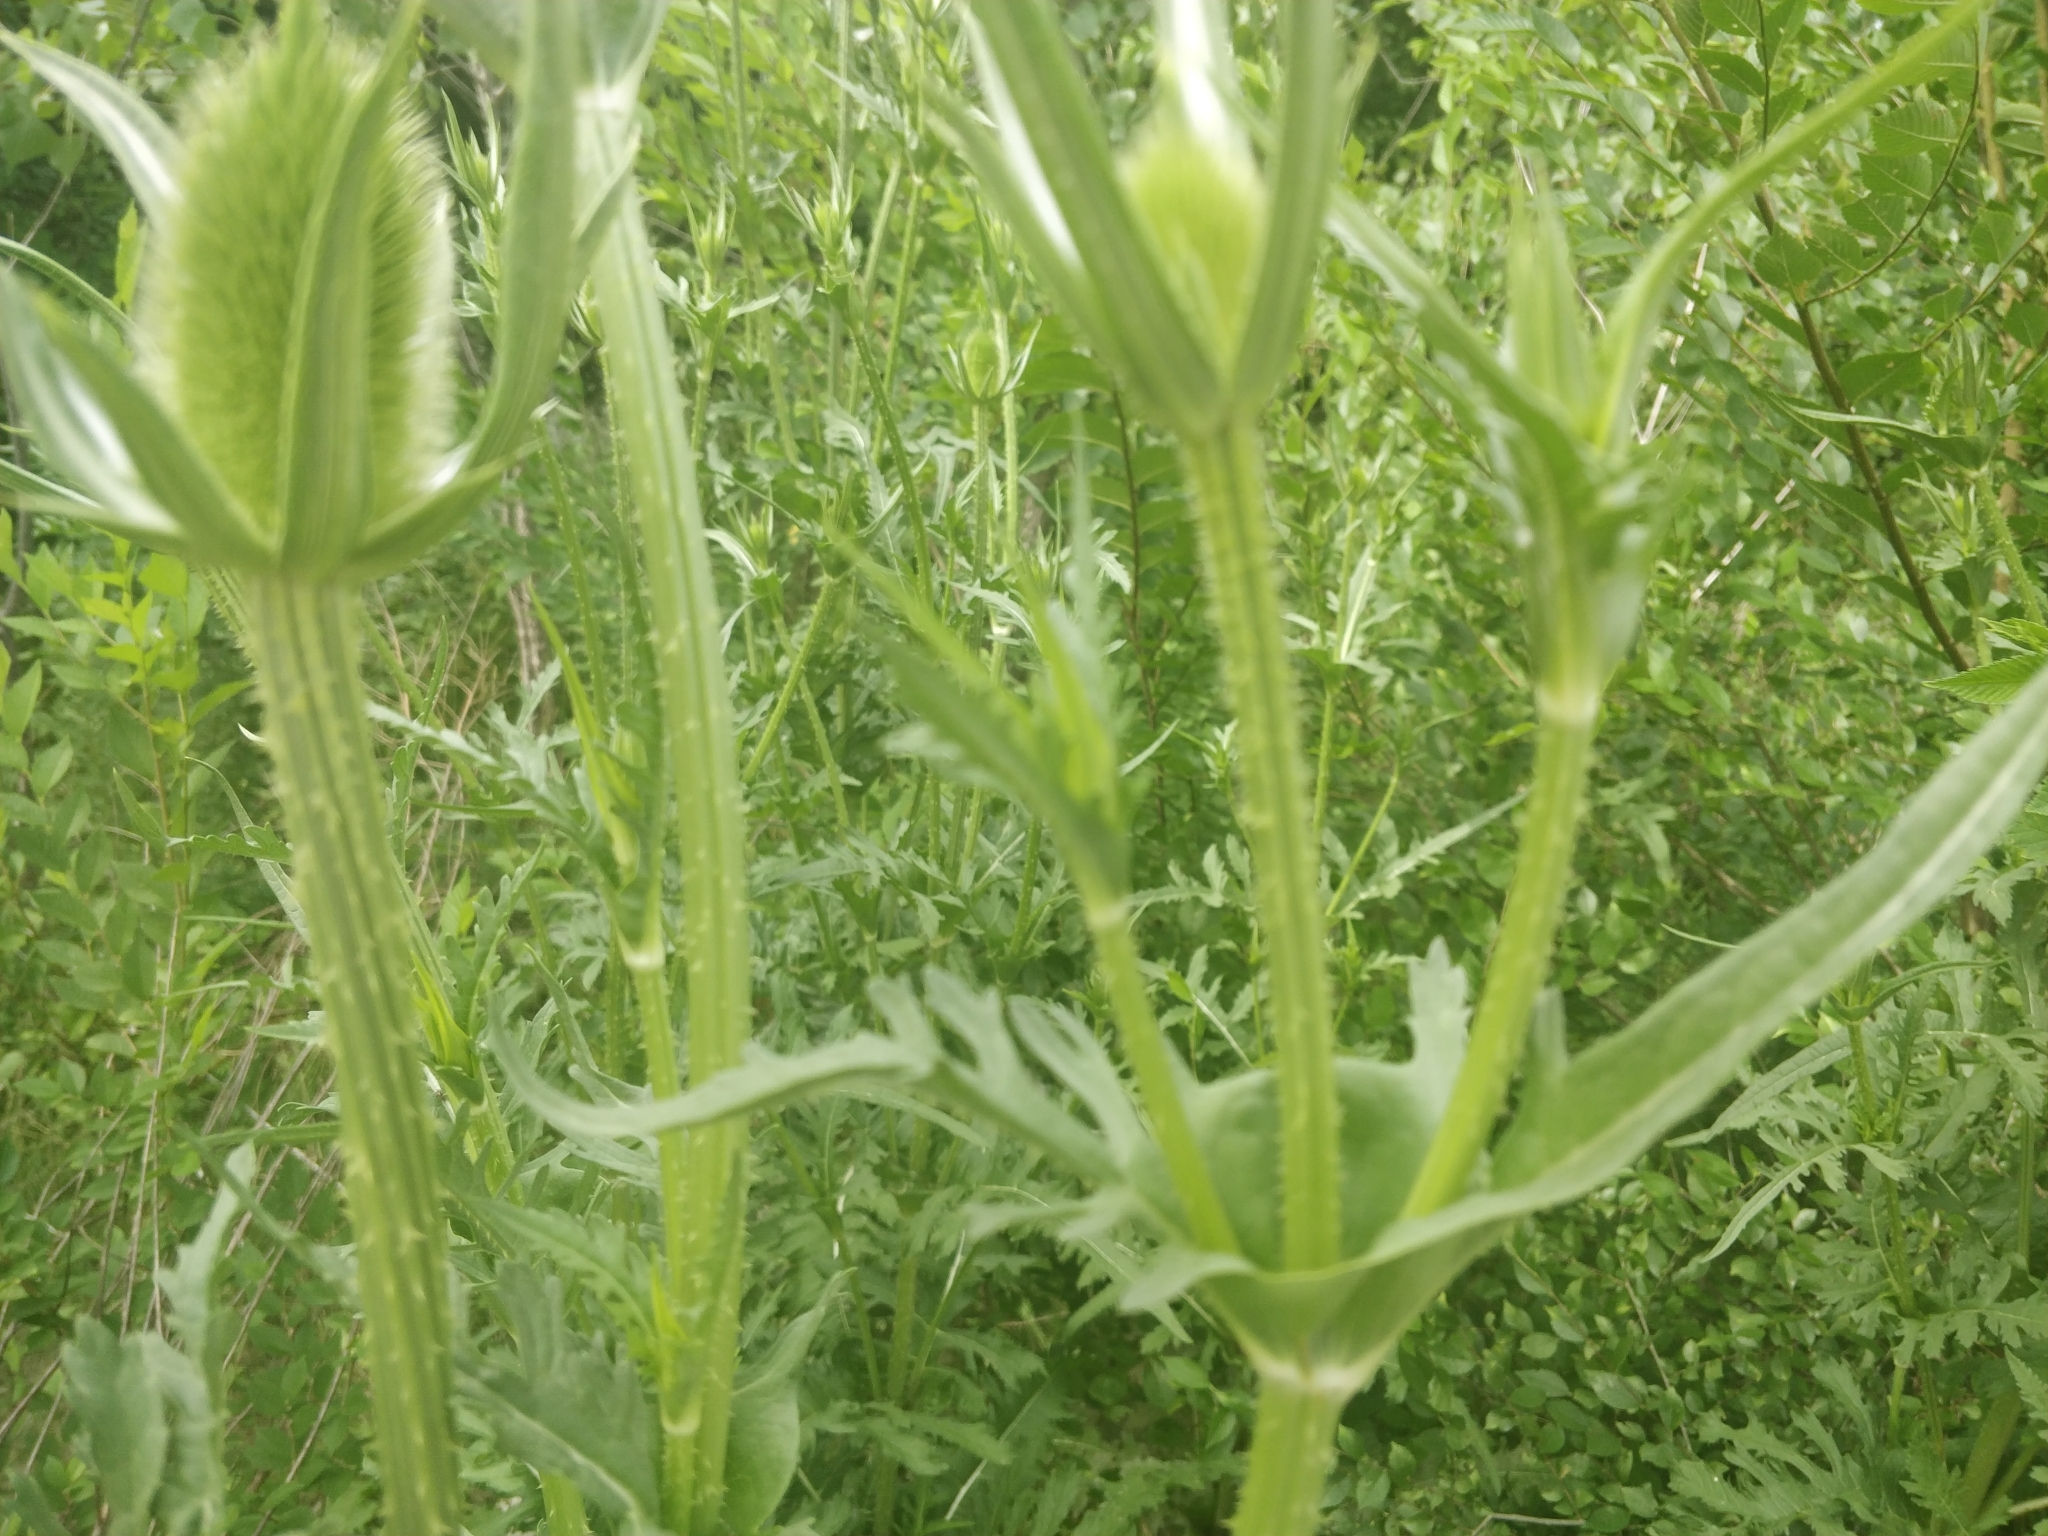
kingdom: Plantae
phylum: Tracheophyta
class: Magnoliopsida
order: Dipsacales
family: Caprifoliaceae
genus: Dipsacus
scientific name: Dipsacus laciniatus
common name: Cut-leaved teasel
